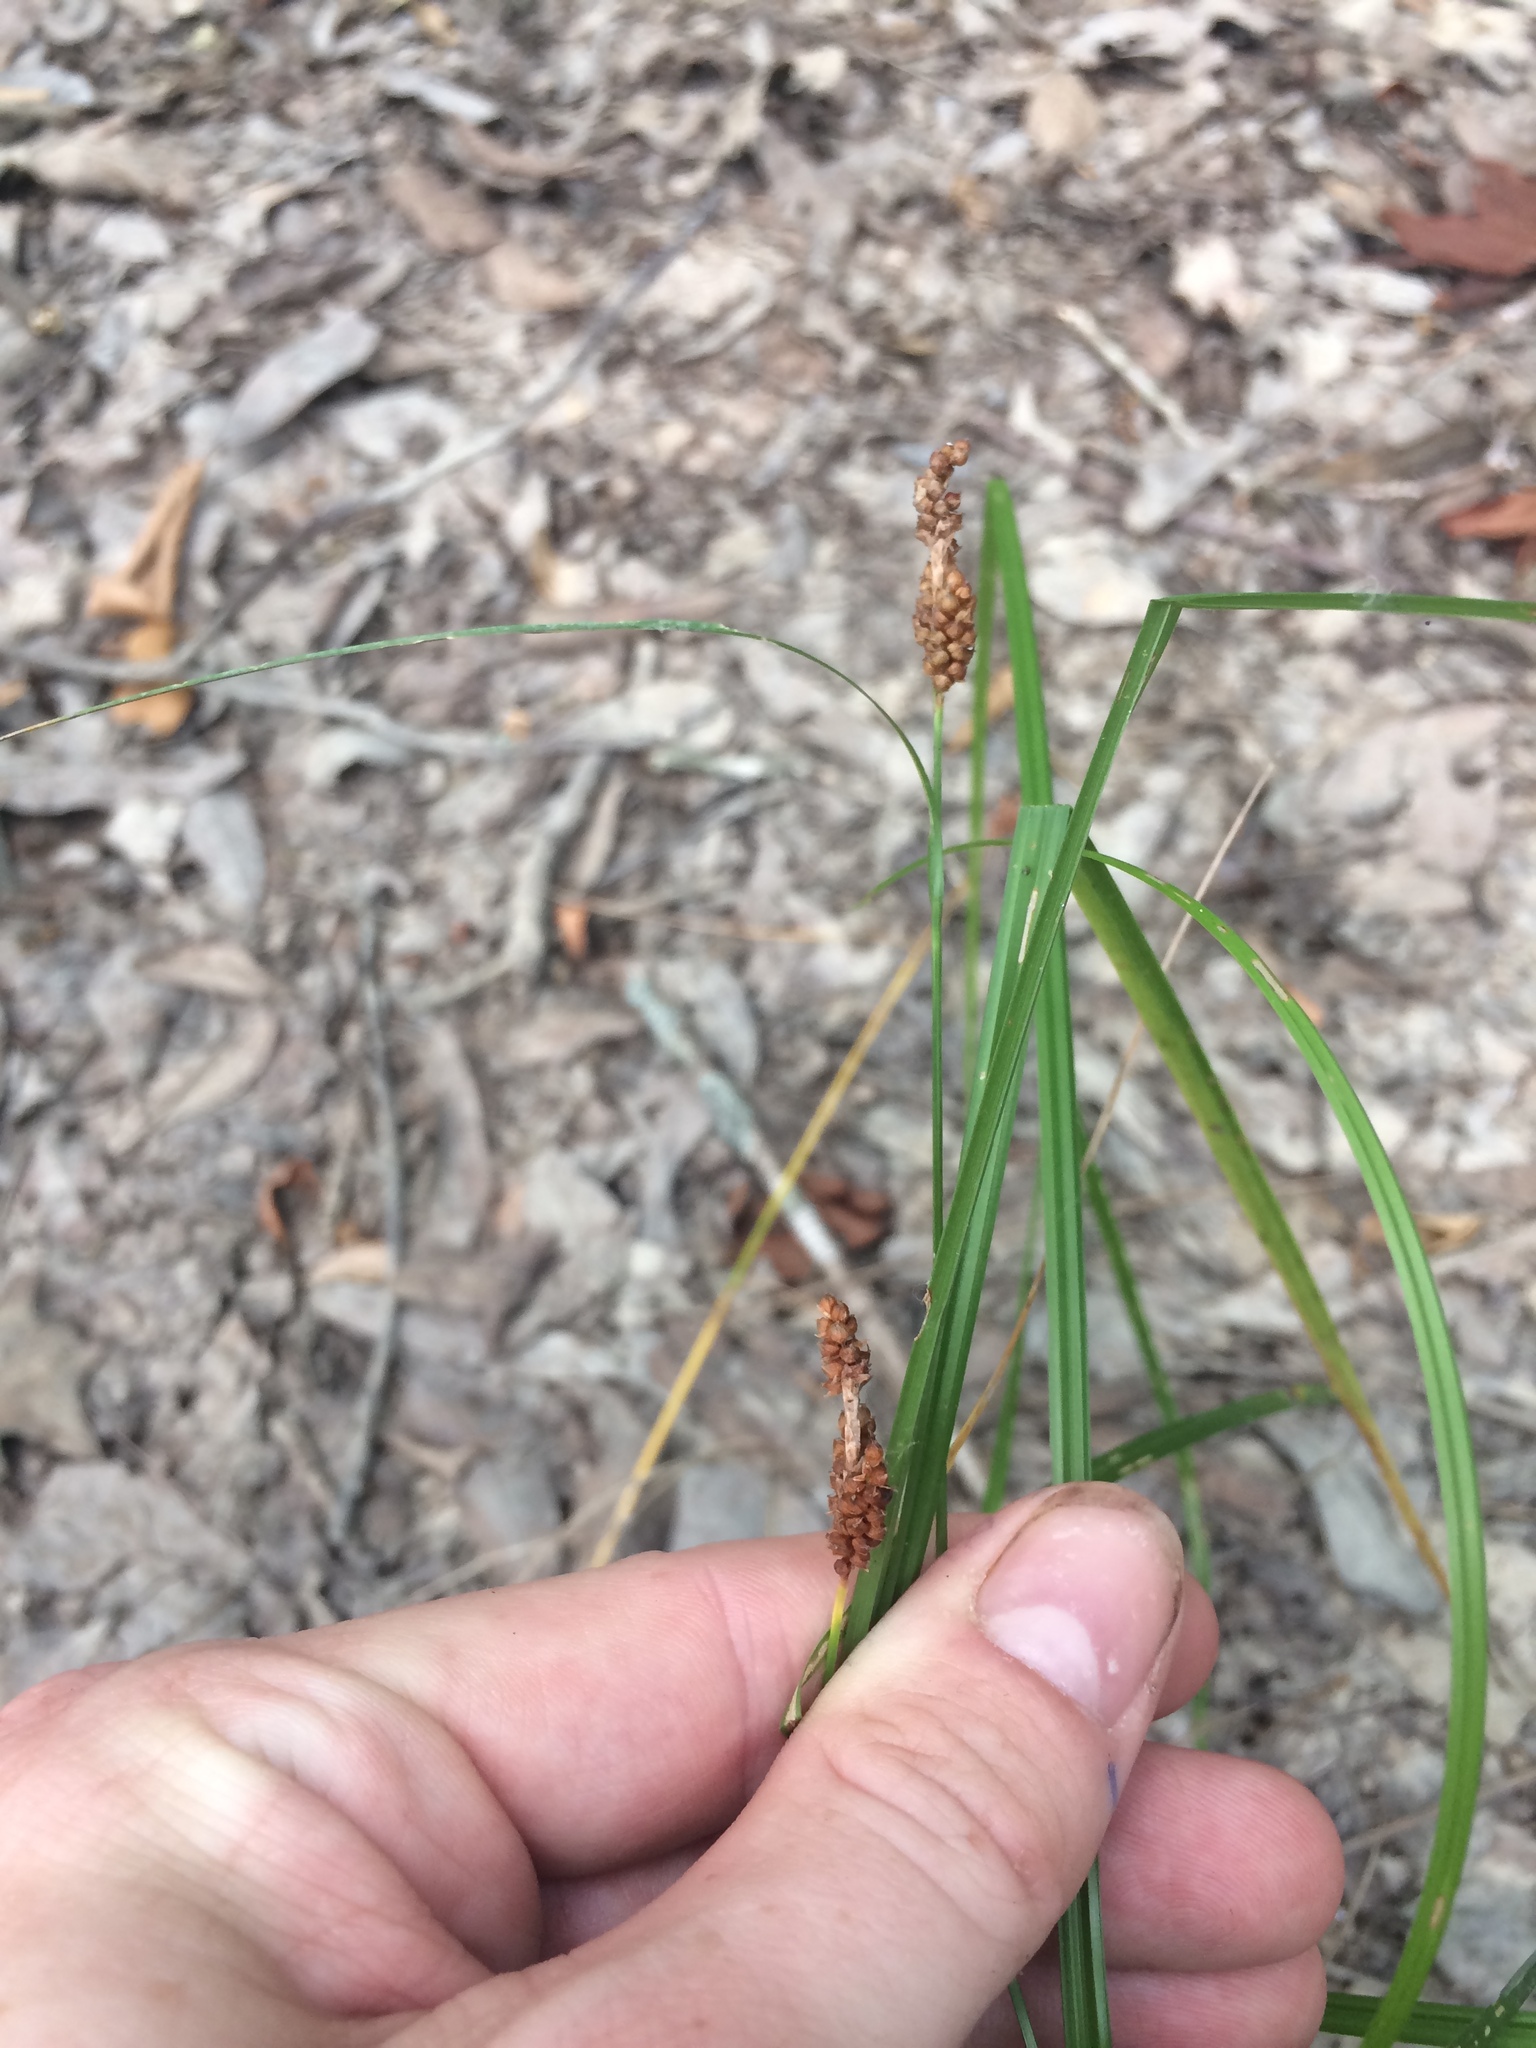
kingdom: Plantae
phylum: Tracheophyta
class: Liliopsida
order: Poales
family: Cyperaceae
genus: Carex
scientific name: Carex caroliniana
